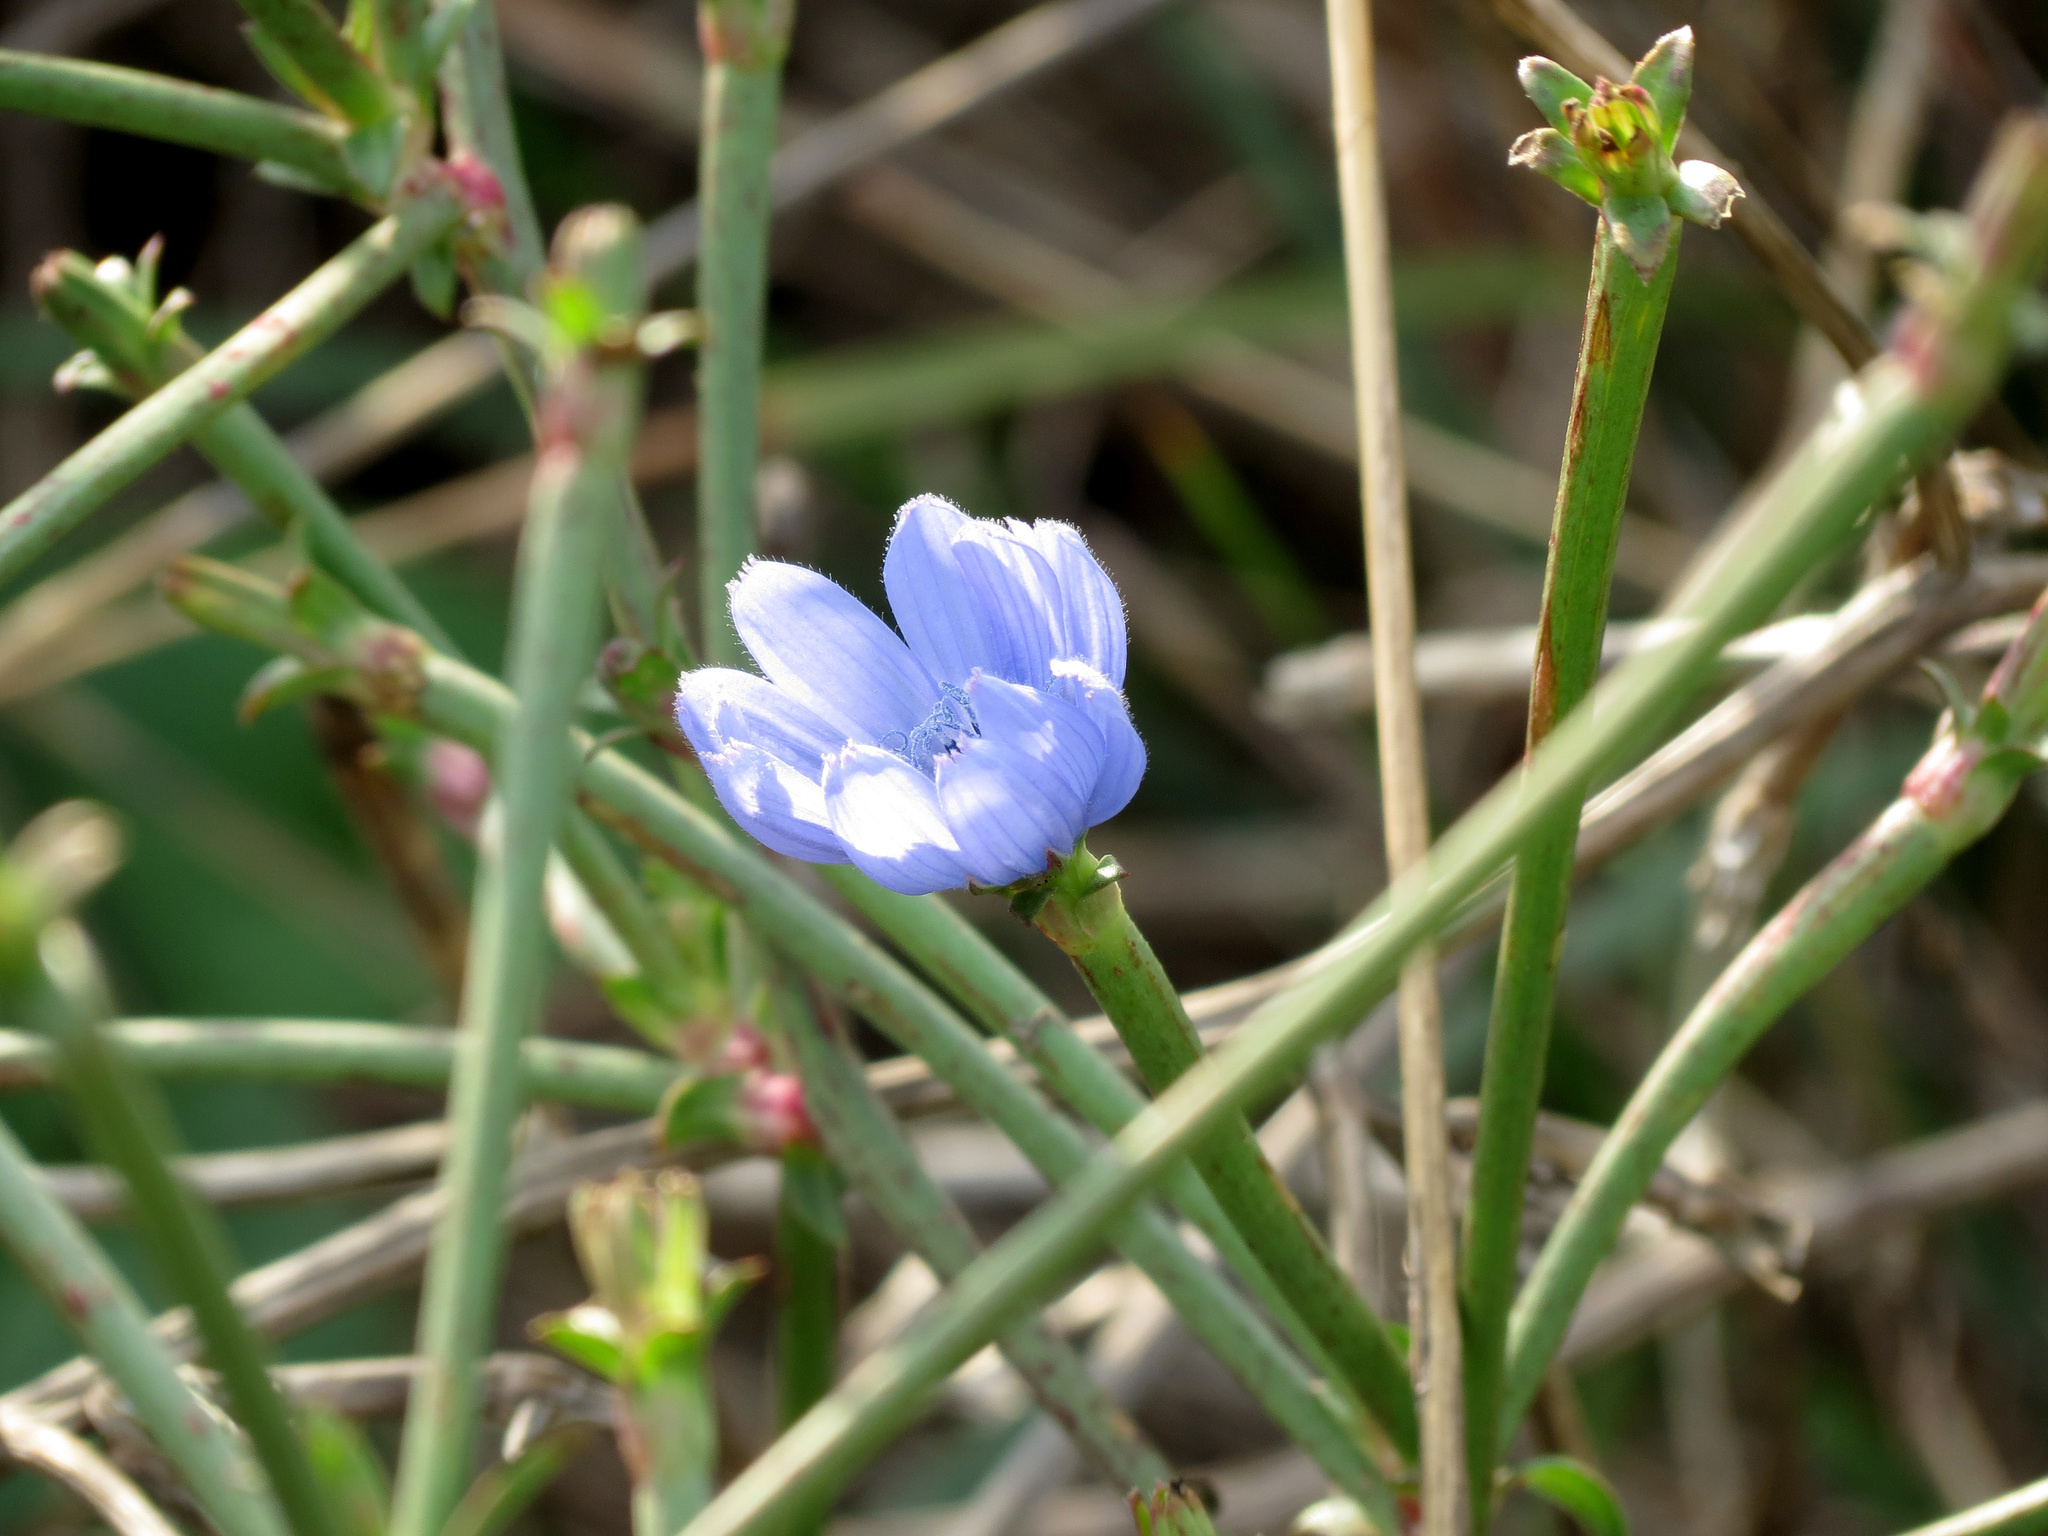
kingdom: Plantae
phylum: Tracheophyta
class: Magnoliopsida
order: Asterales
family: Asteraceae
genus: Cichorium
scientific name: Cichorium intybus
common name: Chicory
